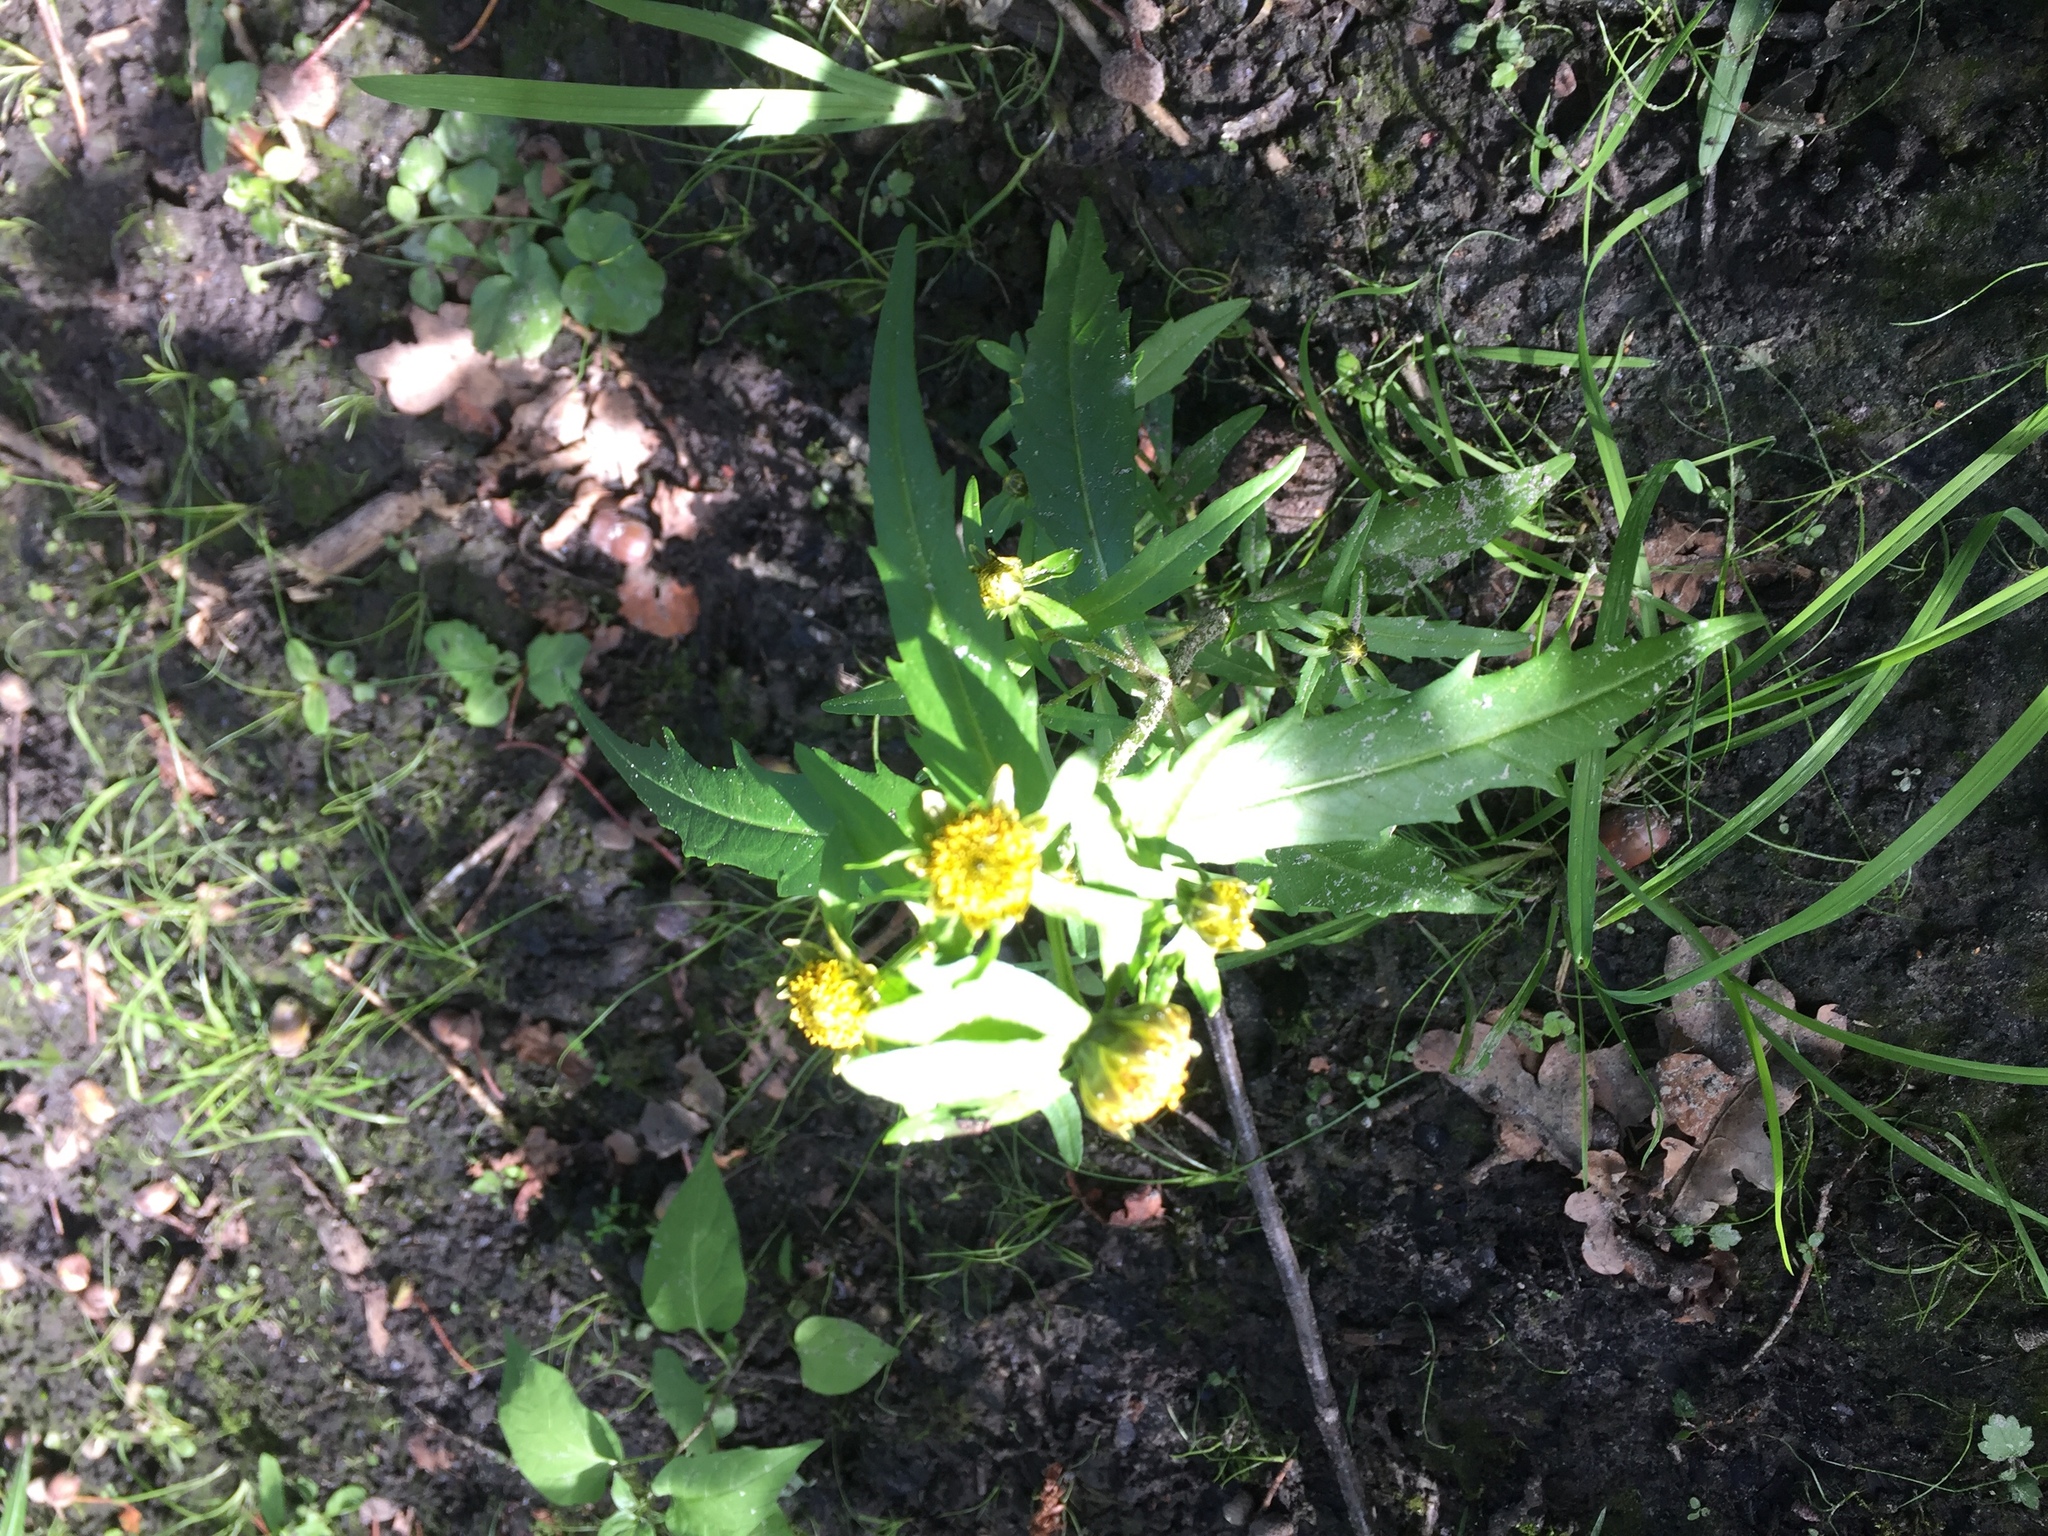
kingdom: Plantae
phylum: Tracheophyta
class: Magnoliopsida
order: Asterales
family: Asteraceae
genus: Bidens
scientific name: Bidens cernua
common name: Nodding bur-marigold
